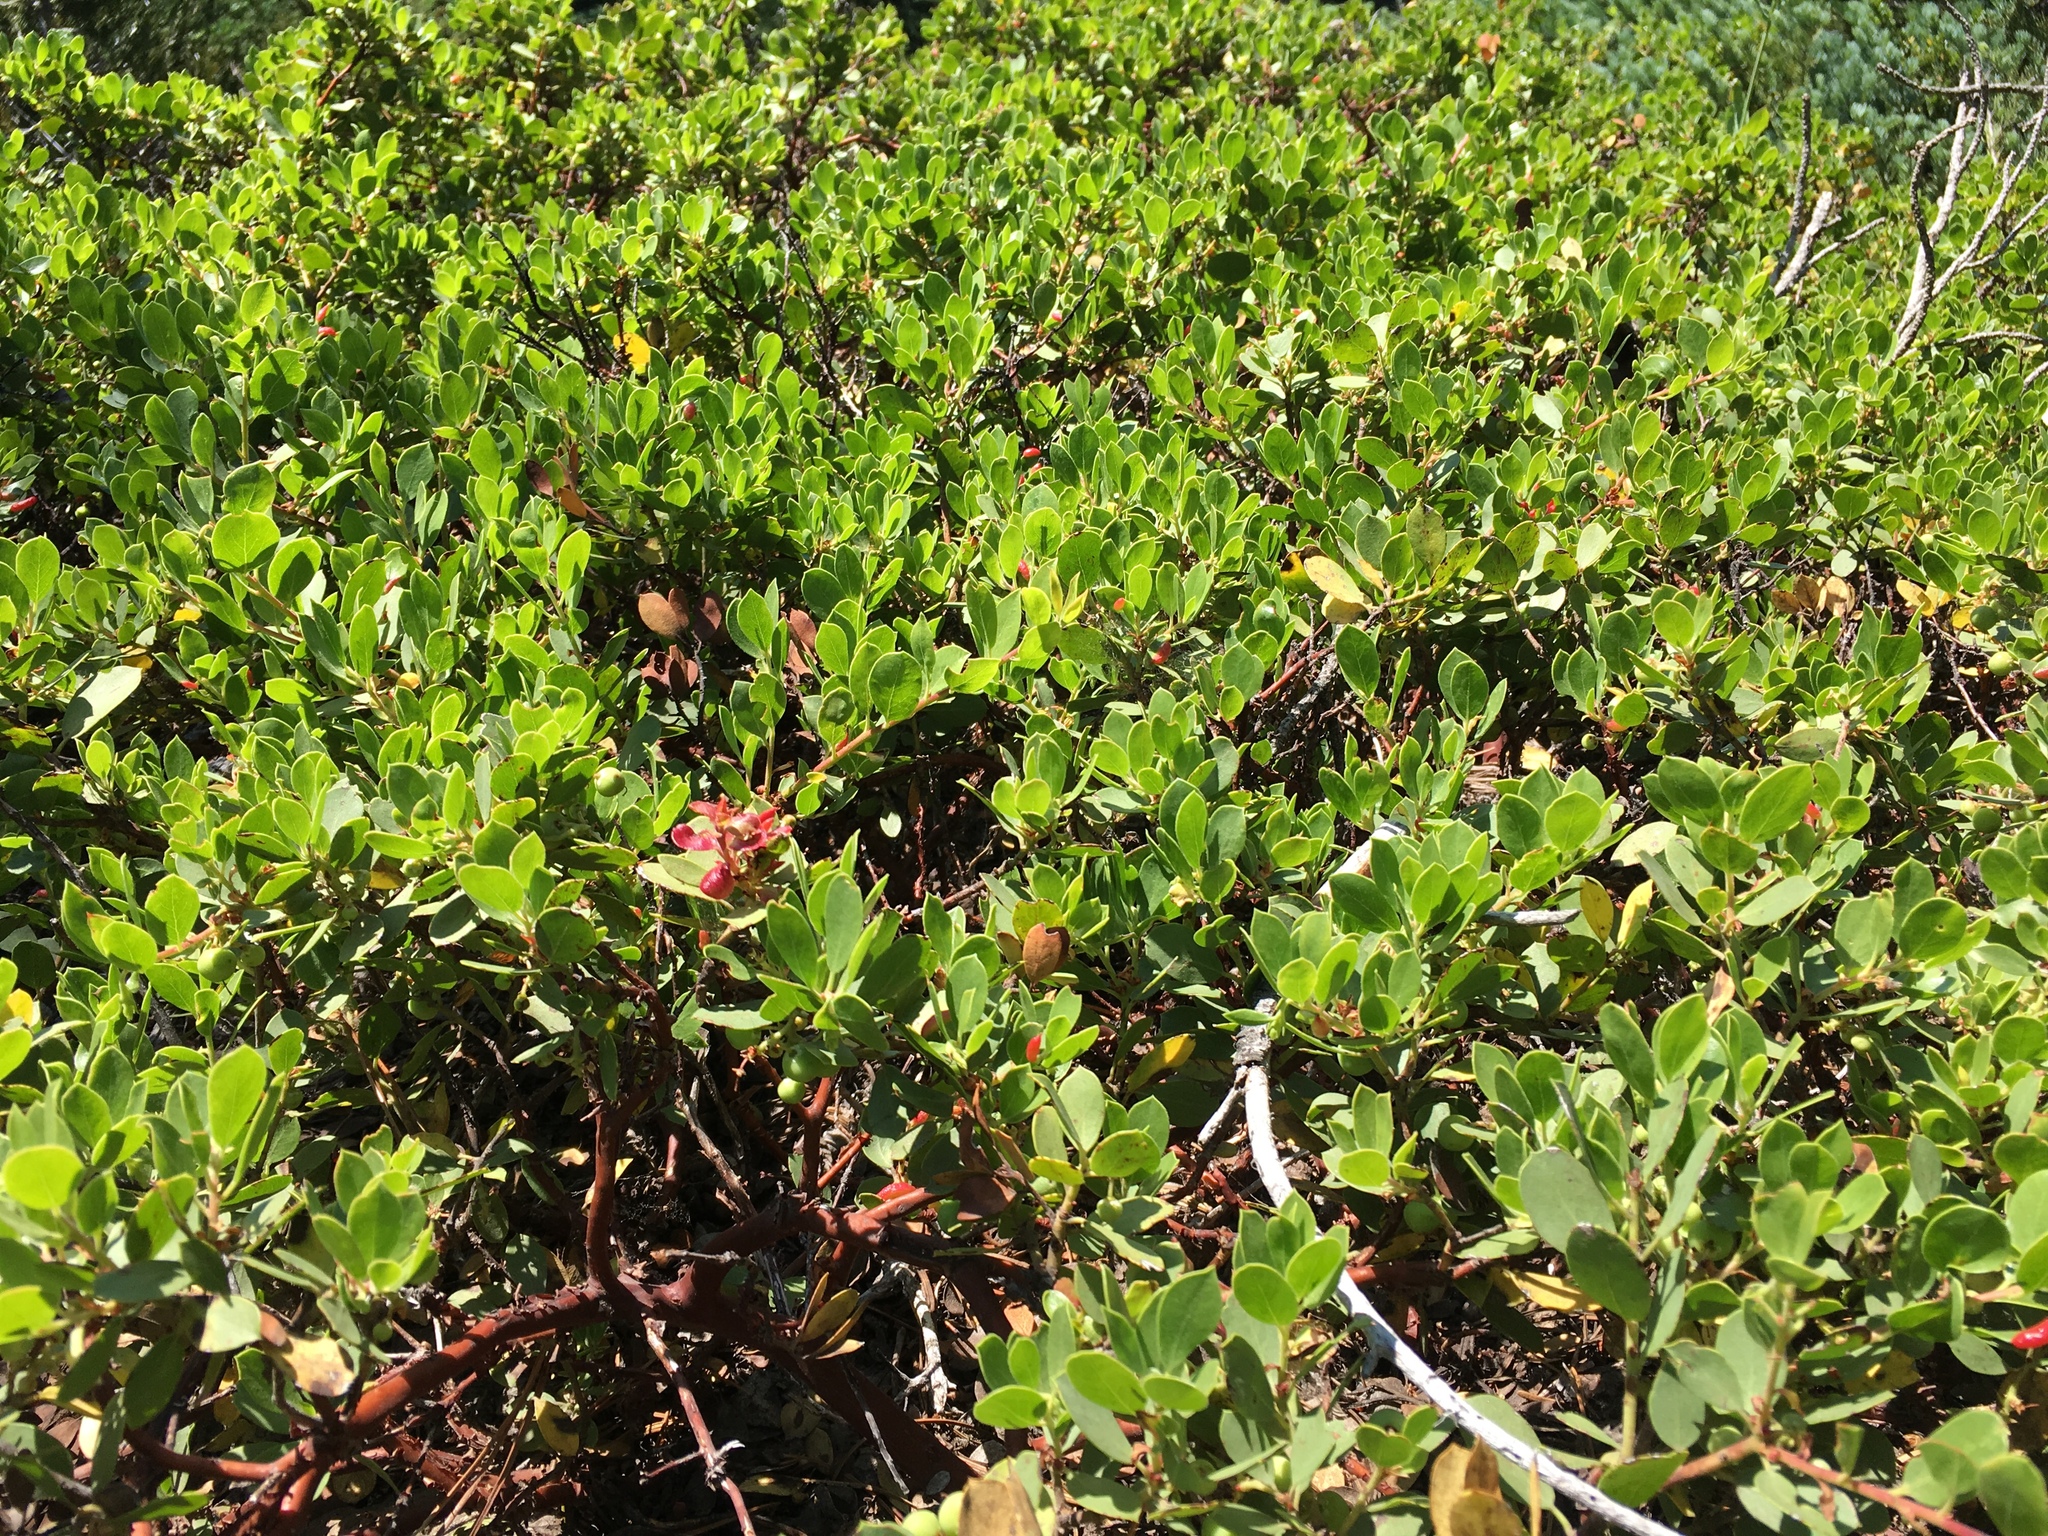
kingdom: Plantae
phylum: Tracheophyta
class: Magnoliopsida
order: Ericales
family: Ericaceae
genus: Arctostaphylos
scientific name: Arctostaphylos nevadensis
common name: Pinemat manzanita
